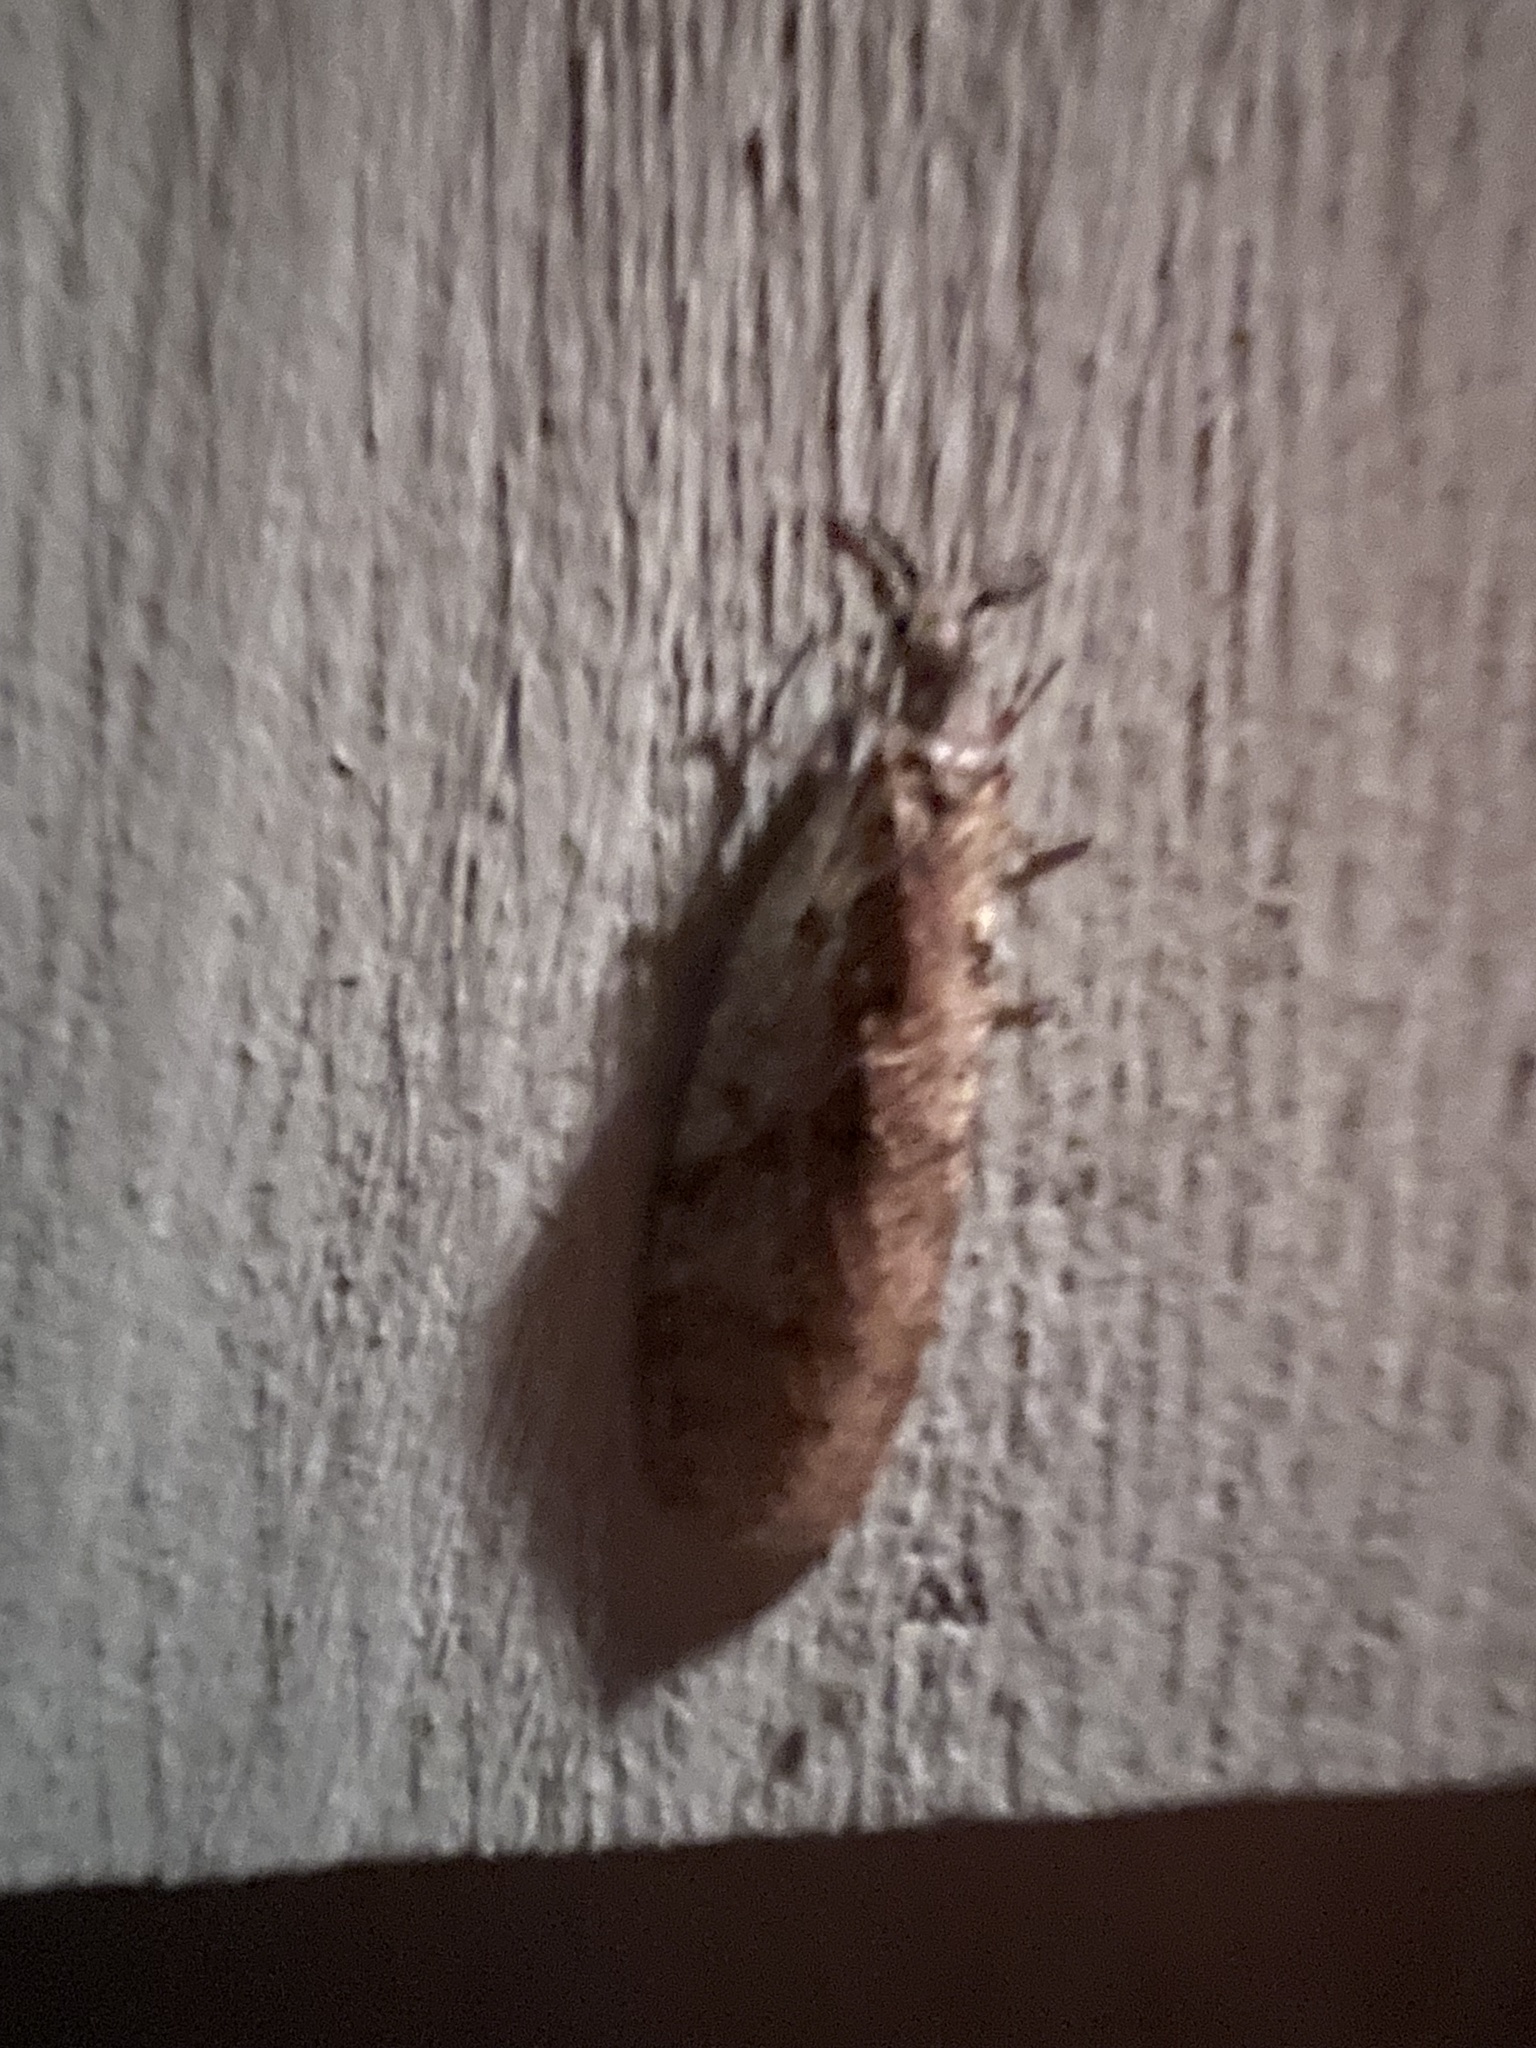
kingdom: Animalia
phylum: Arthropoda
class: Insecta
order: Megaloptera
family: Corydalidae
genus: Chauliodes
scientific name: Chauliodes
